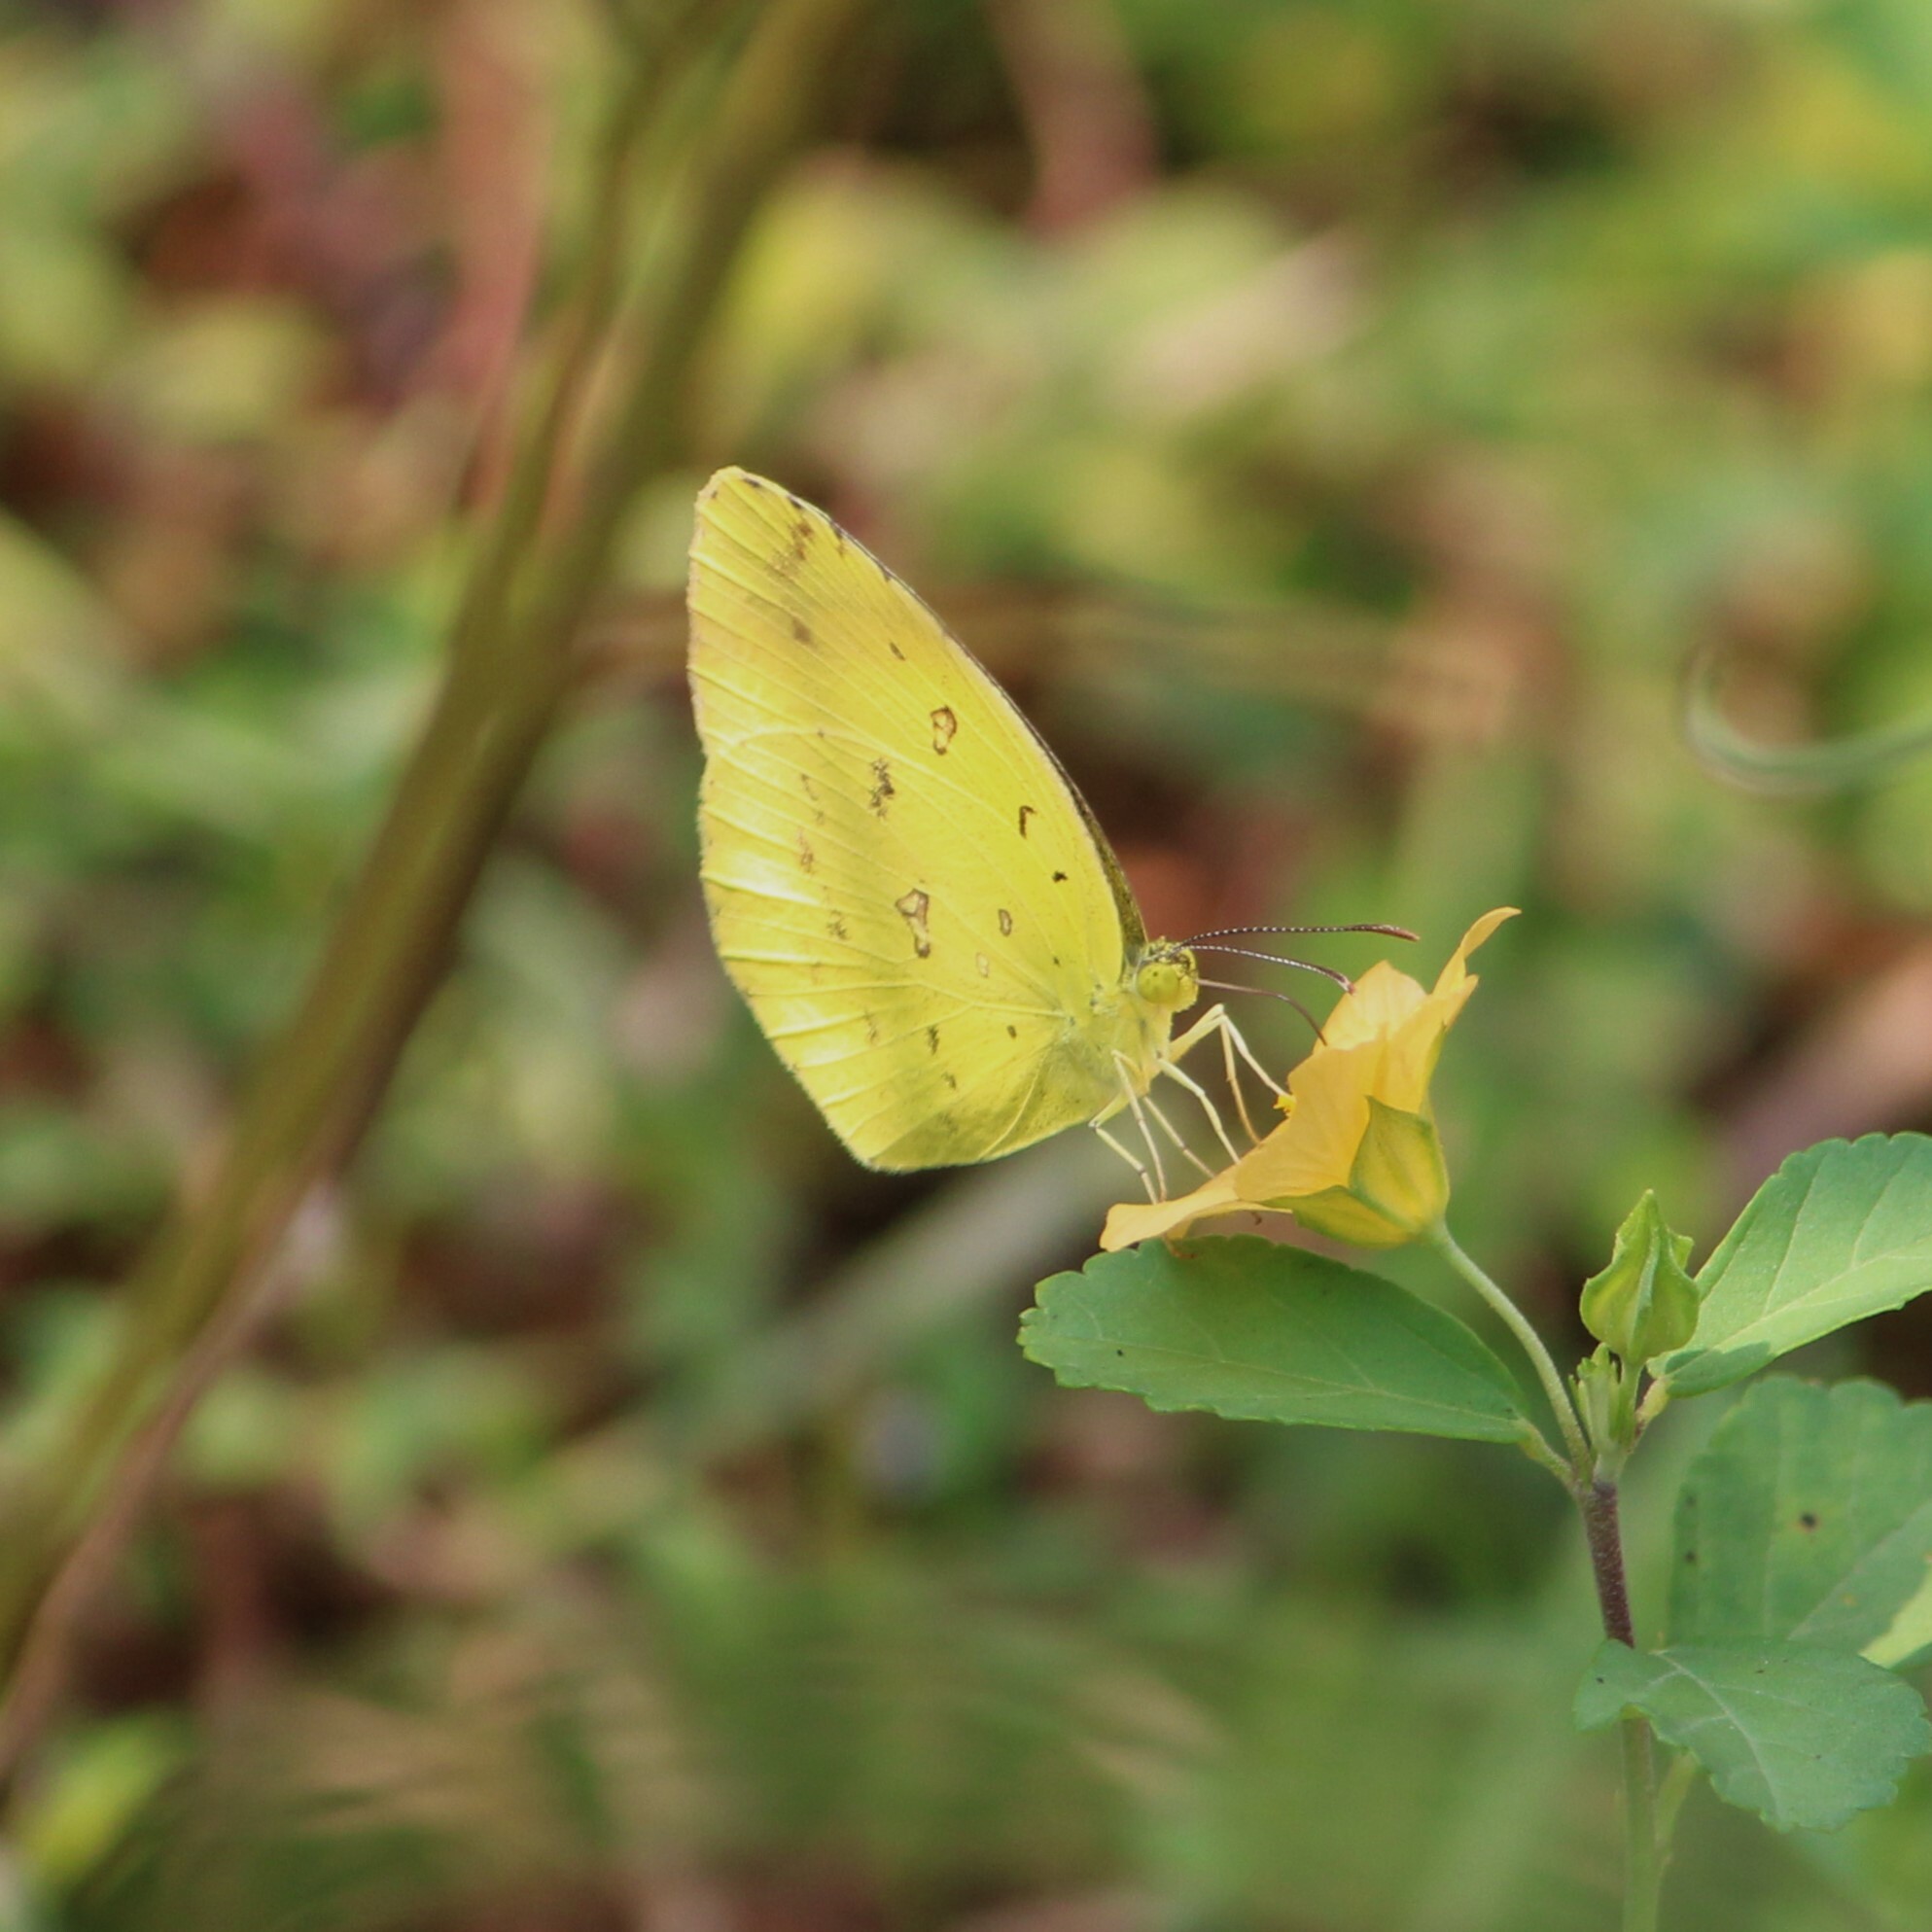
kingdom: Animalia
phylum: Arthropoda
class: Insecta
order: Lepidoptera
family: Pieridae
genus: Eurema
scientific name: Eurema hecabe
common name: Pale grass yellow
